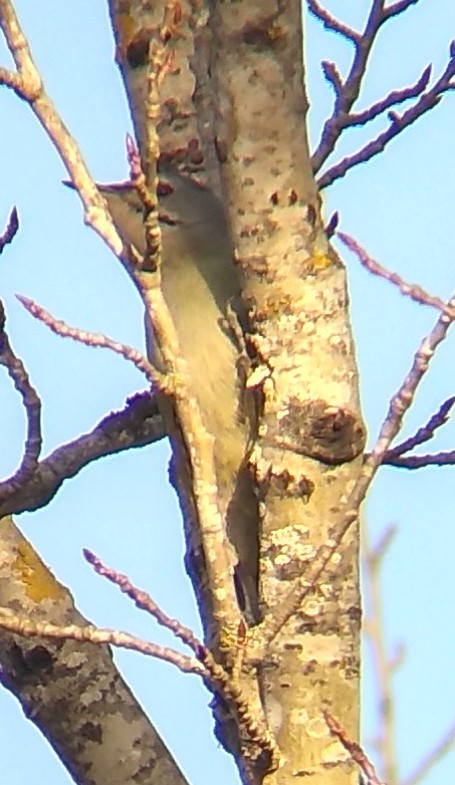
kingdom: Animalia
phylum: Chordata
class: Aves
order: Piciformes
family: Picidae
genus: Picus
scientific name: Picus canus
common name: Grey-headed woodpecker
